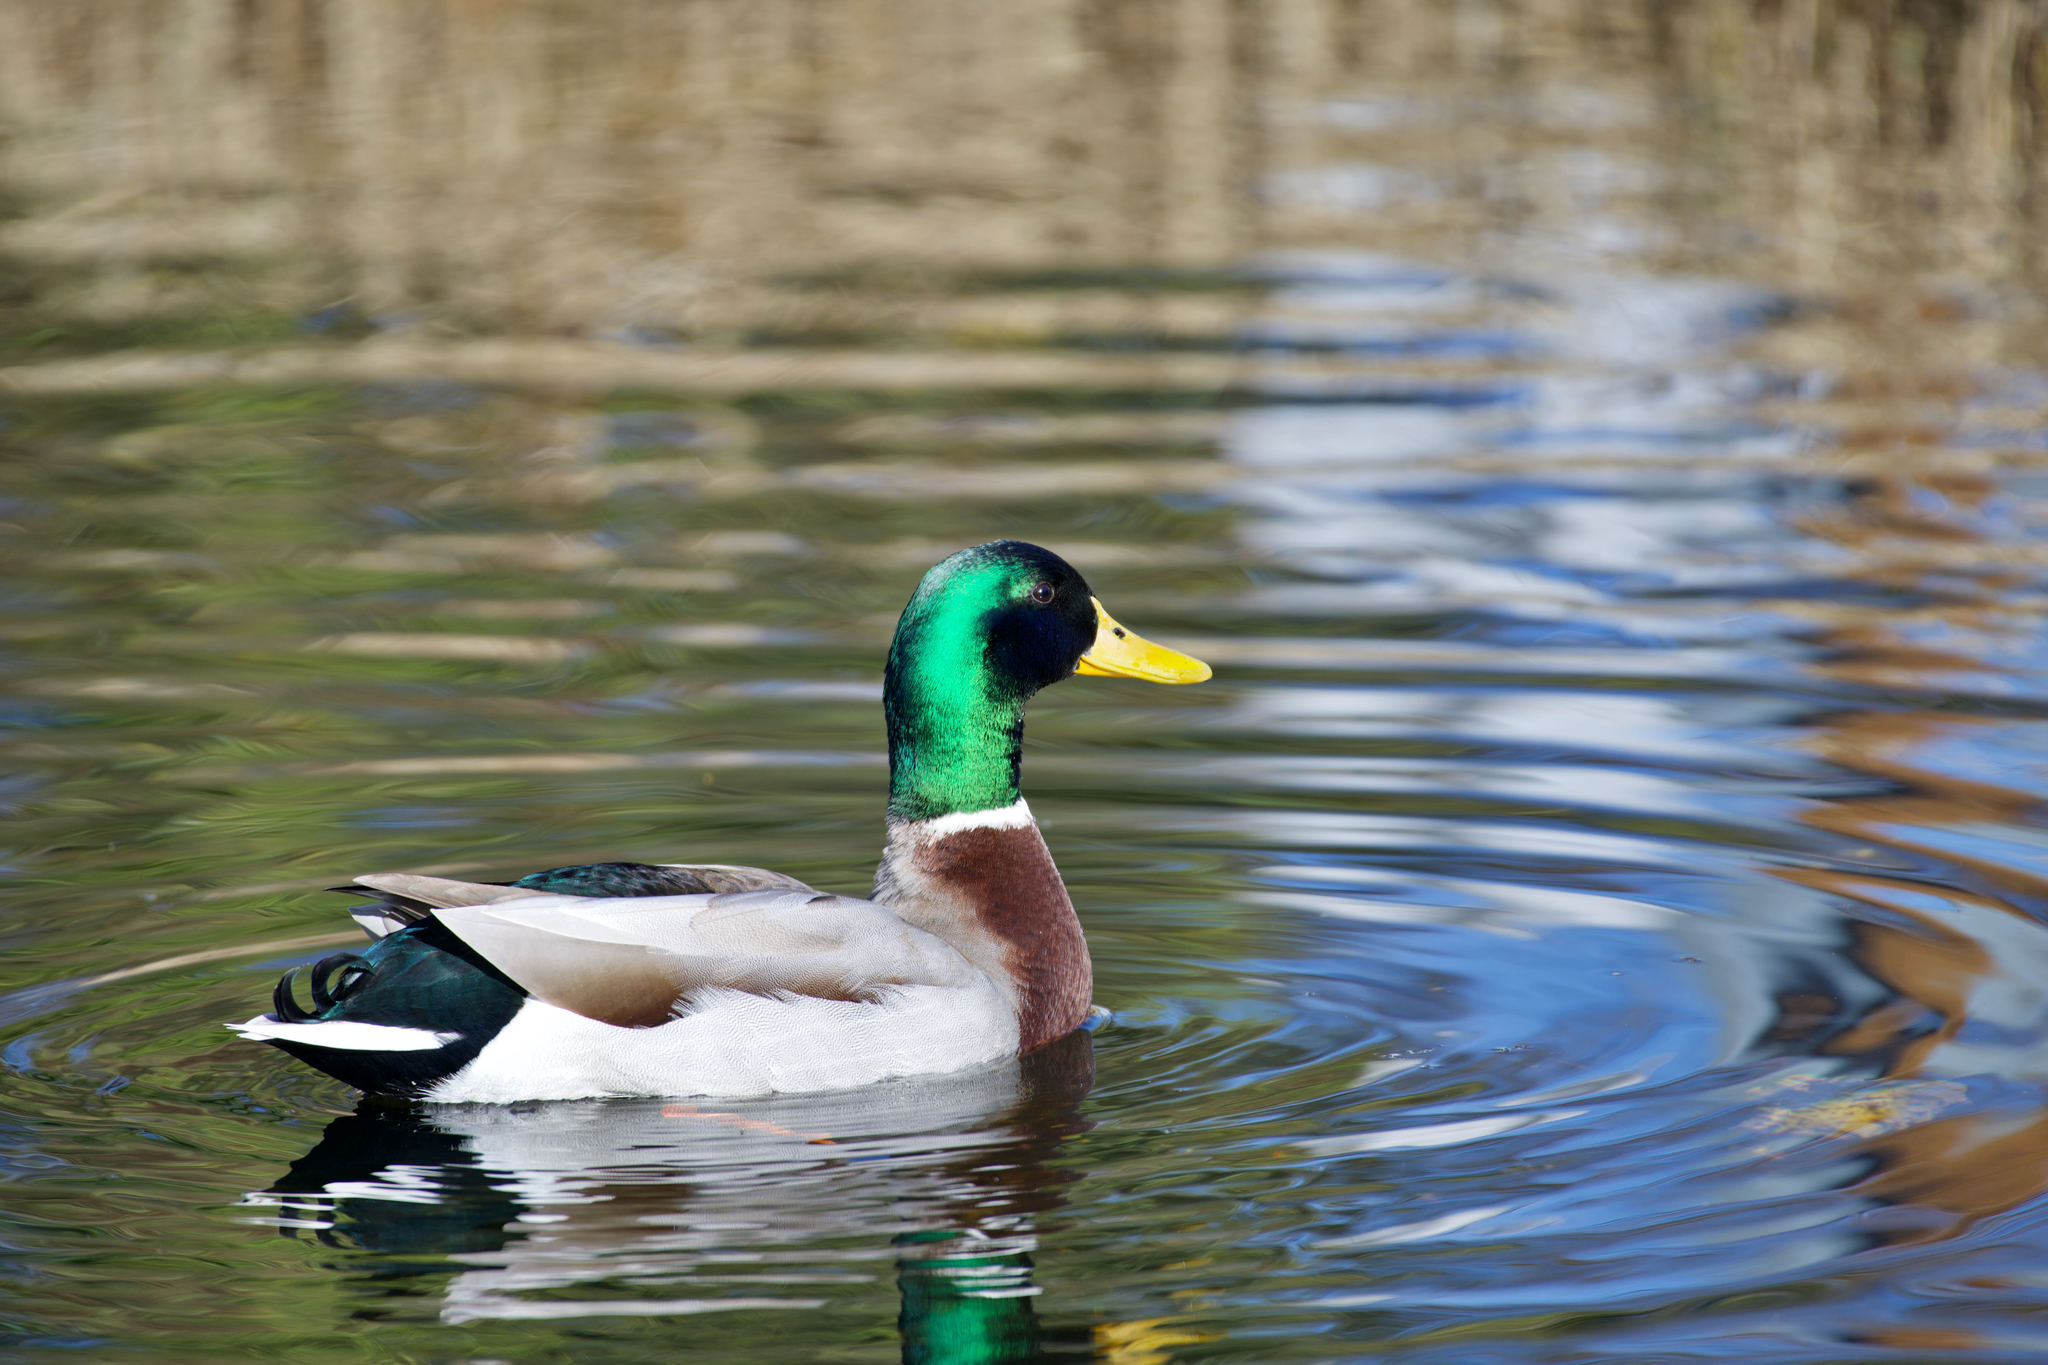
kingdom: Animalia
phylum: Chordata
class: Aves
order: Anseriformes
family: Anatidae
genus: Anas
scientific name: Anas platyrhynchos
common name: Mallard
